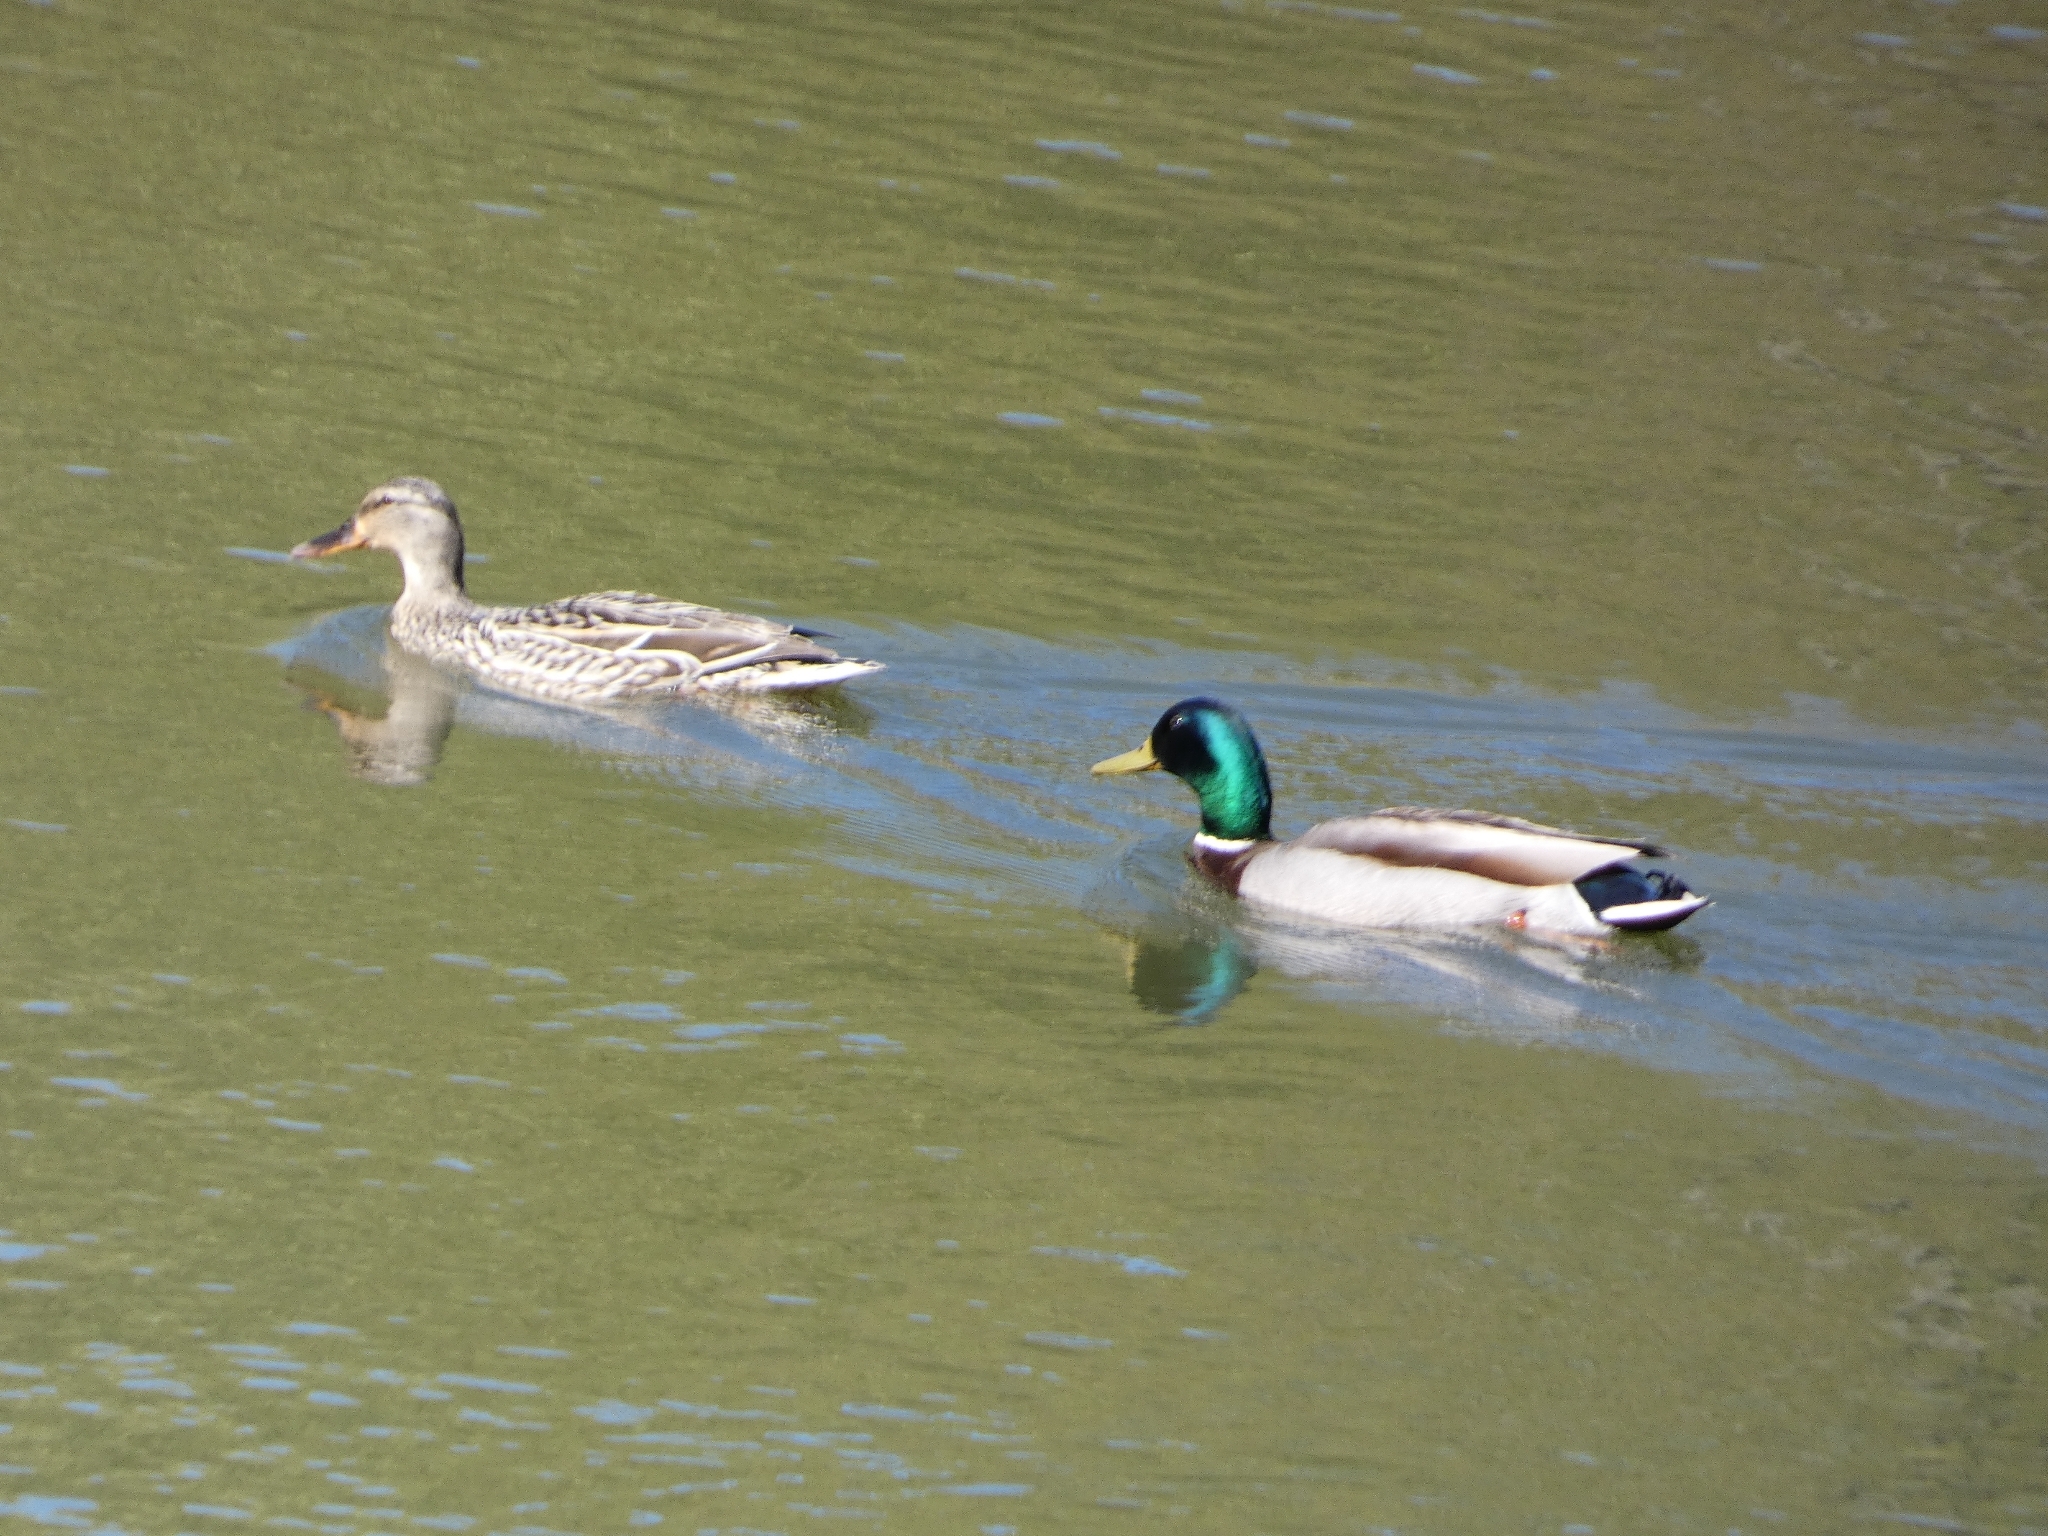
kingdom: Animalia
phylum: Chordata
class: Aves
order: Anseriformes
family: Anatidae
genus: Anas
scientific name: Anas platyrhynchos
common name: Mallard
